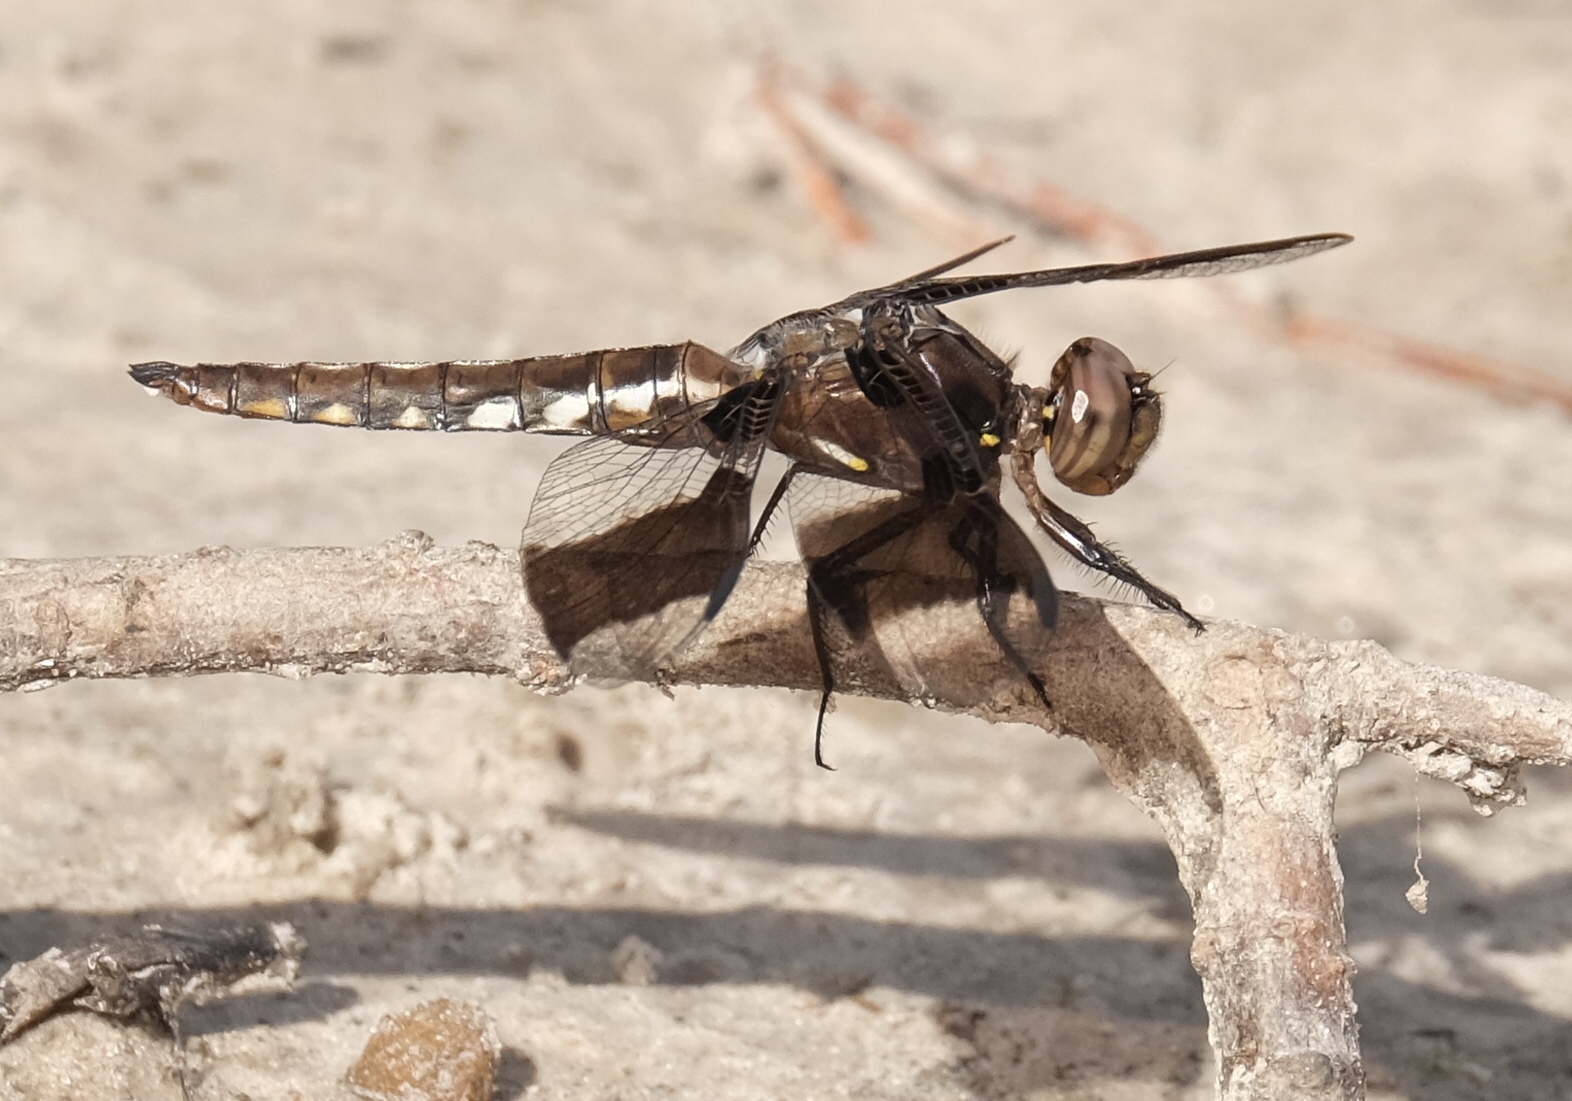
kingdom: Animalia
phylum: Arthropoda
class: Insecta
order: Odonata
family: Libellulidae
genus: Plathemis
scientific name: Plathemis lydia
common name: Common whitetail
